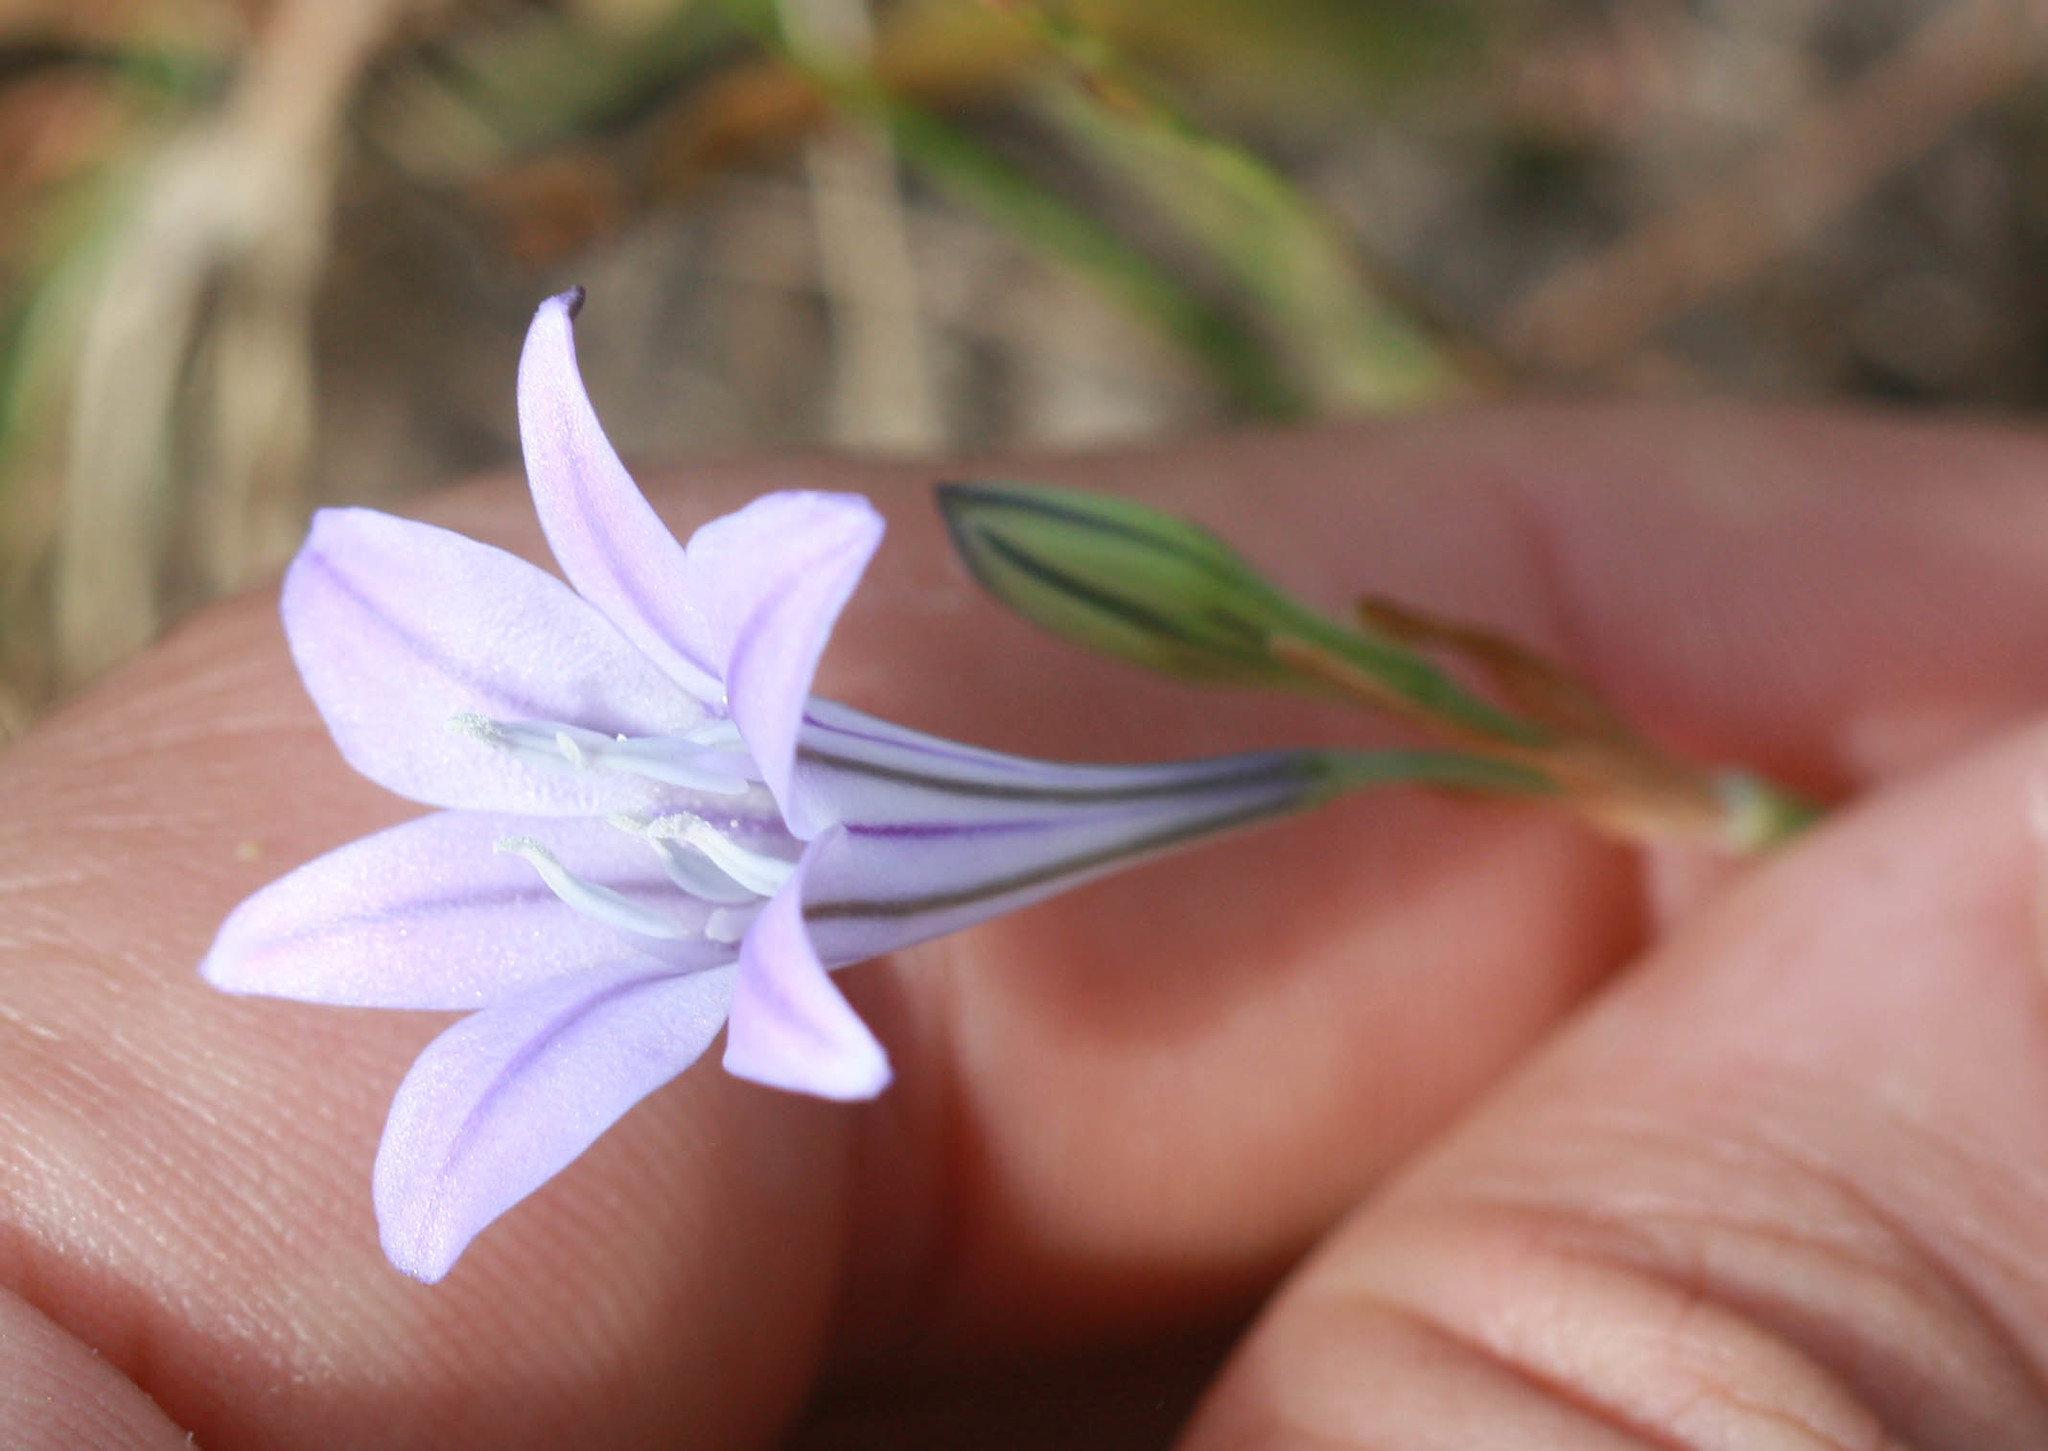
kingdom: Plantae
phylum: Tracheophyta
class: Liliopsida
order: Asparagales
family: Asparagaceae
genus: Triteleia
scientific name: Triteleia laxa
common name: Triplet-lily
